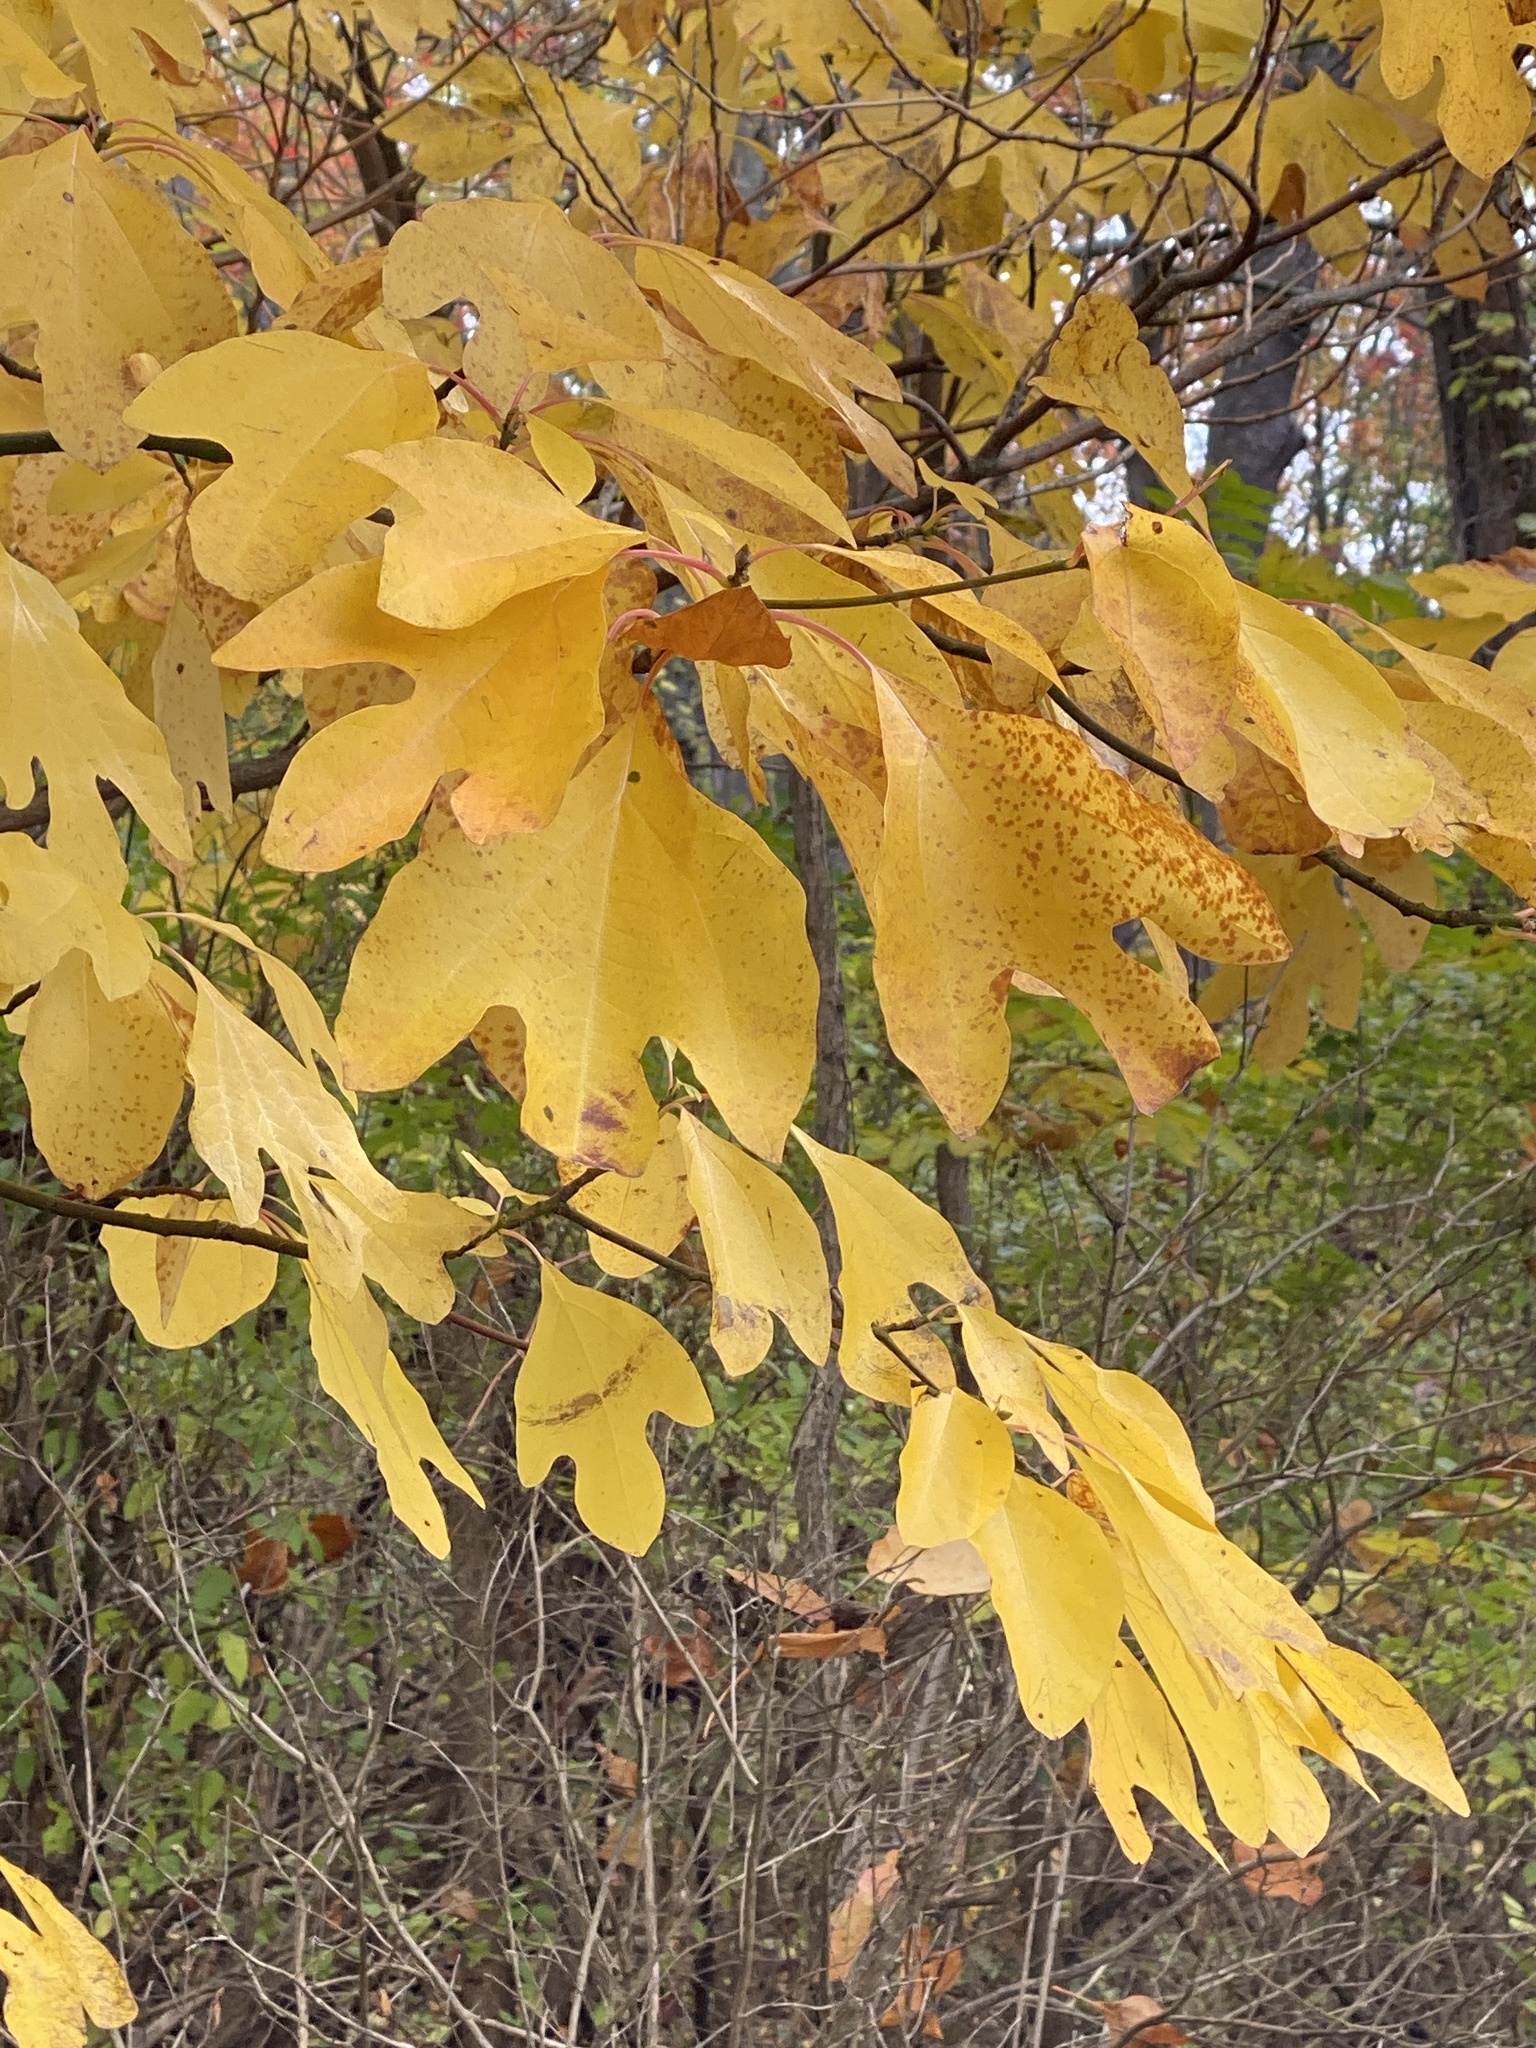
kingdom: Plantae
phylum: Tracheophyta
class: Magnoliopsida
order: Laurales
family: Lauraceae
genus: Sassafras
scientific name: Sassafras albidum
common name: Sassafras
